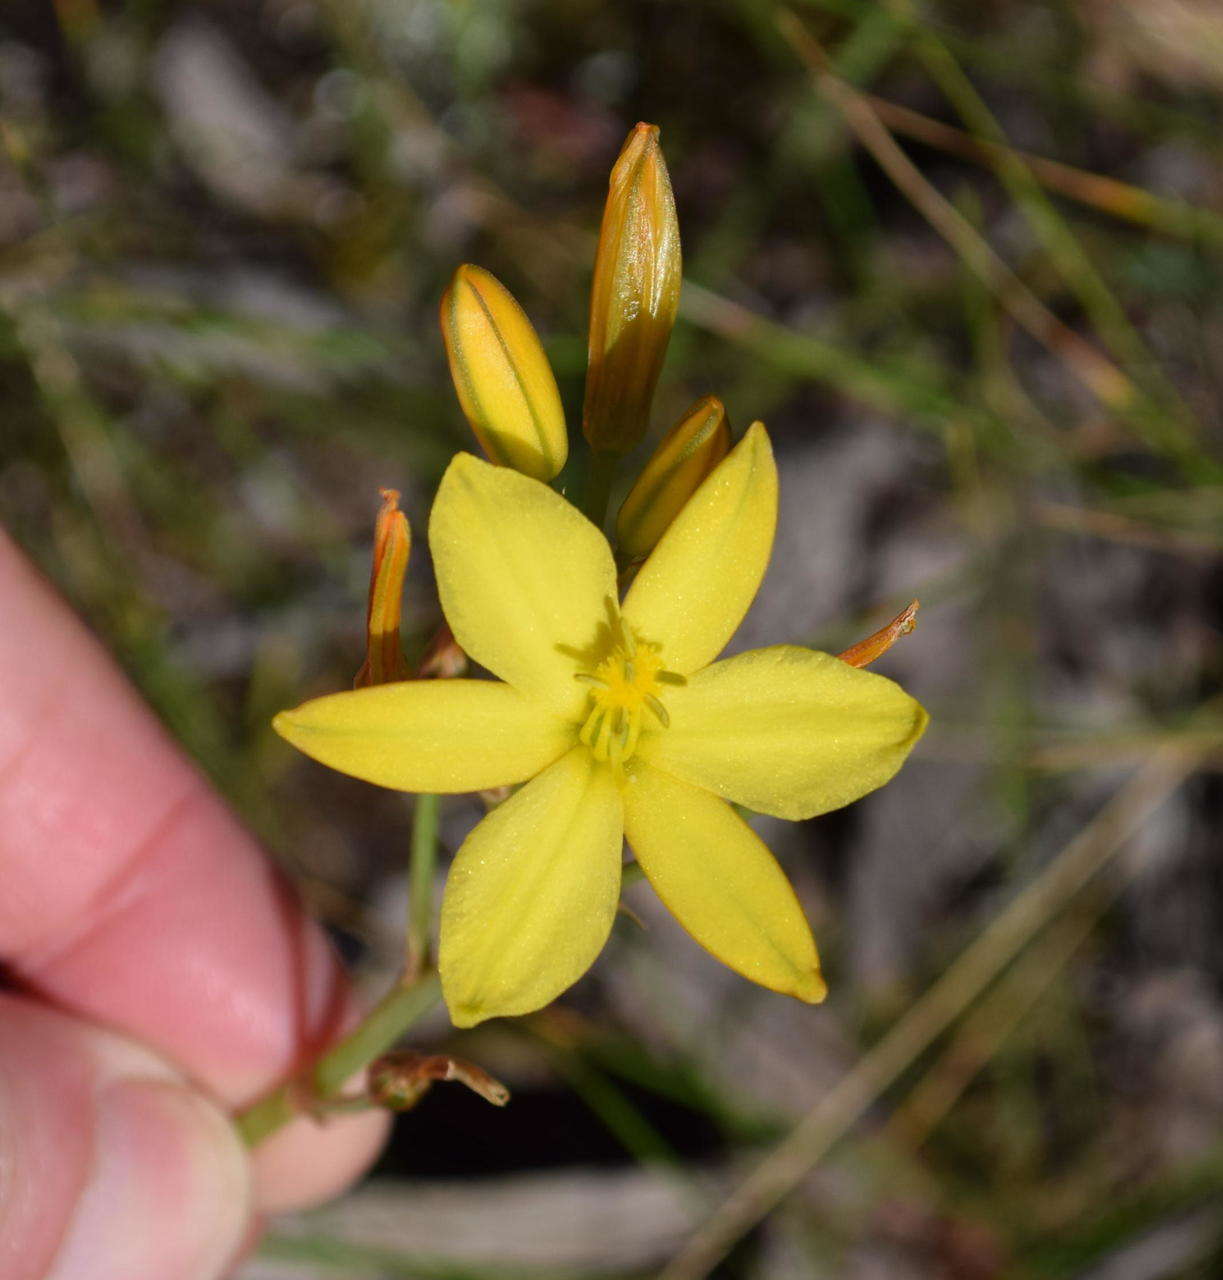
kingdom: Plantae
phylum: Tracheophyta
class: Liliopsida
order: Asparagales
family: Asphodelaceae
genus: Bulbine
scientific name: Bulbine bulbosa
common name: Golden-lily
